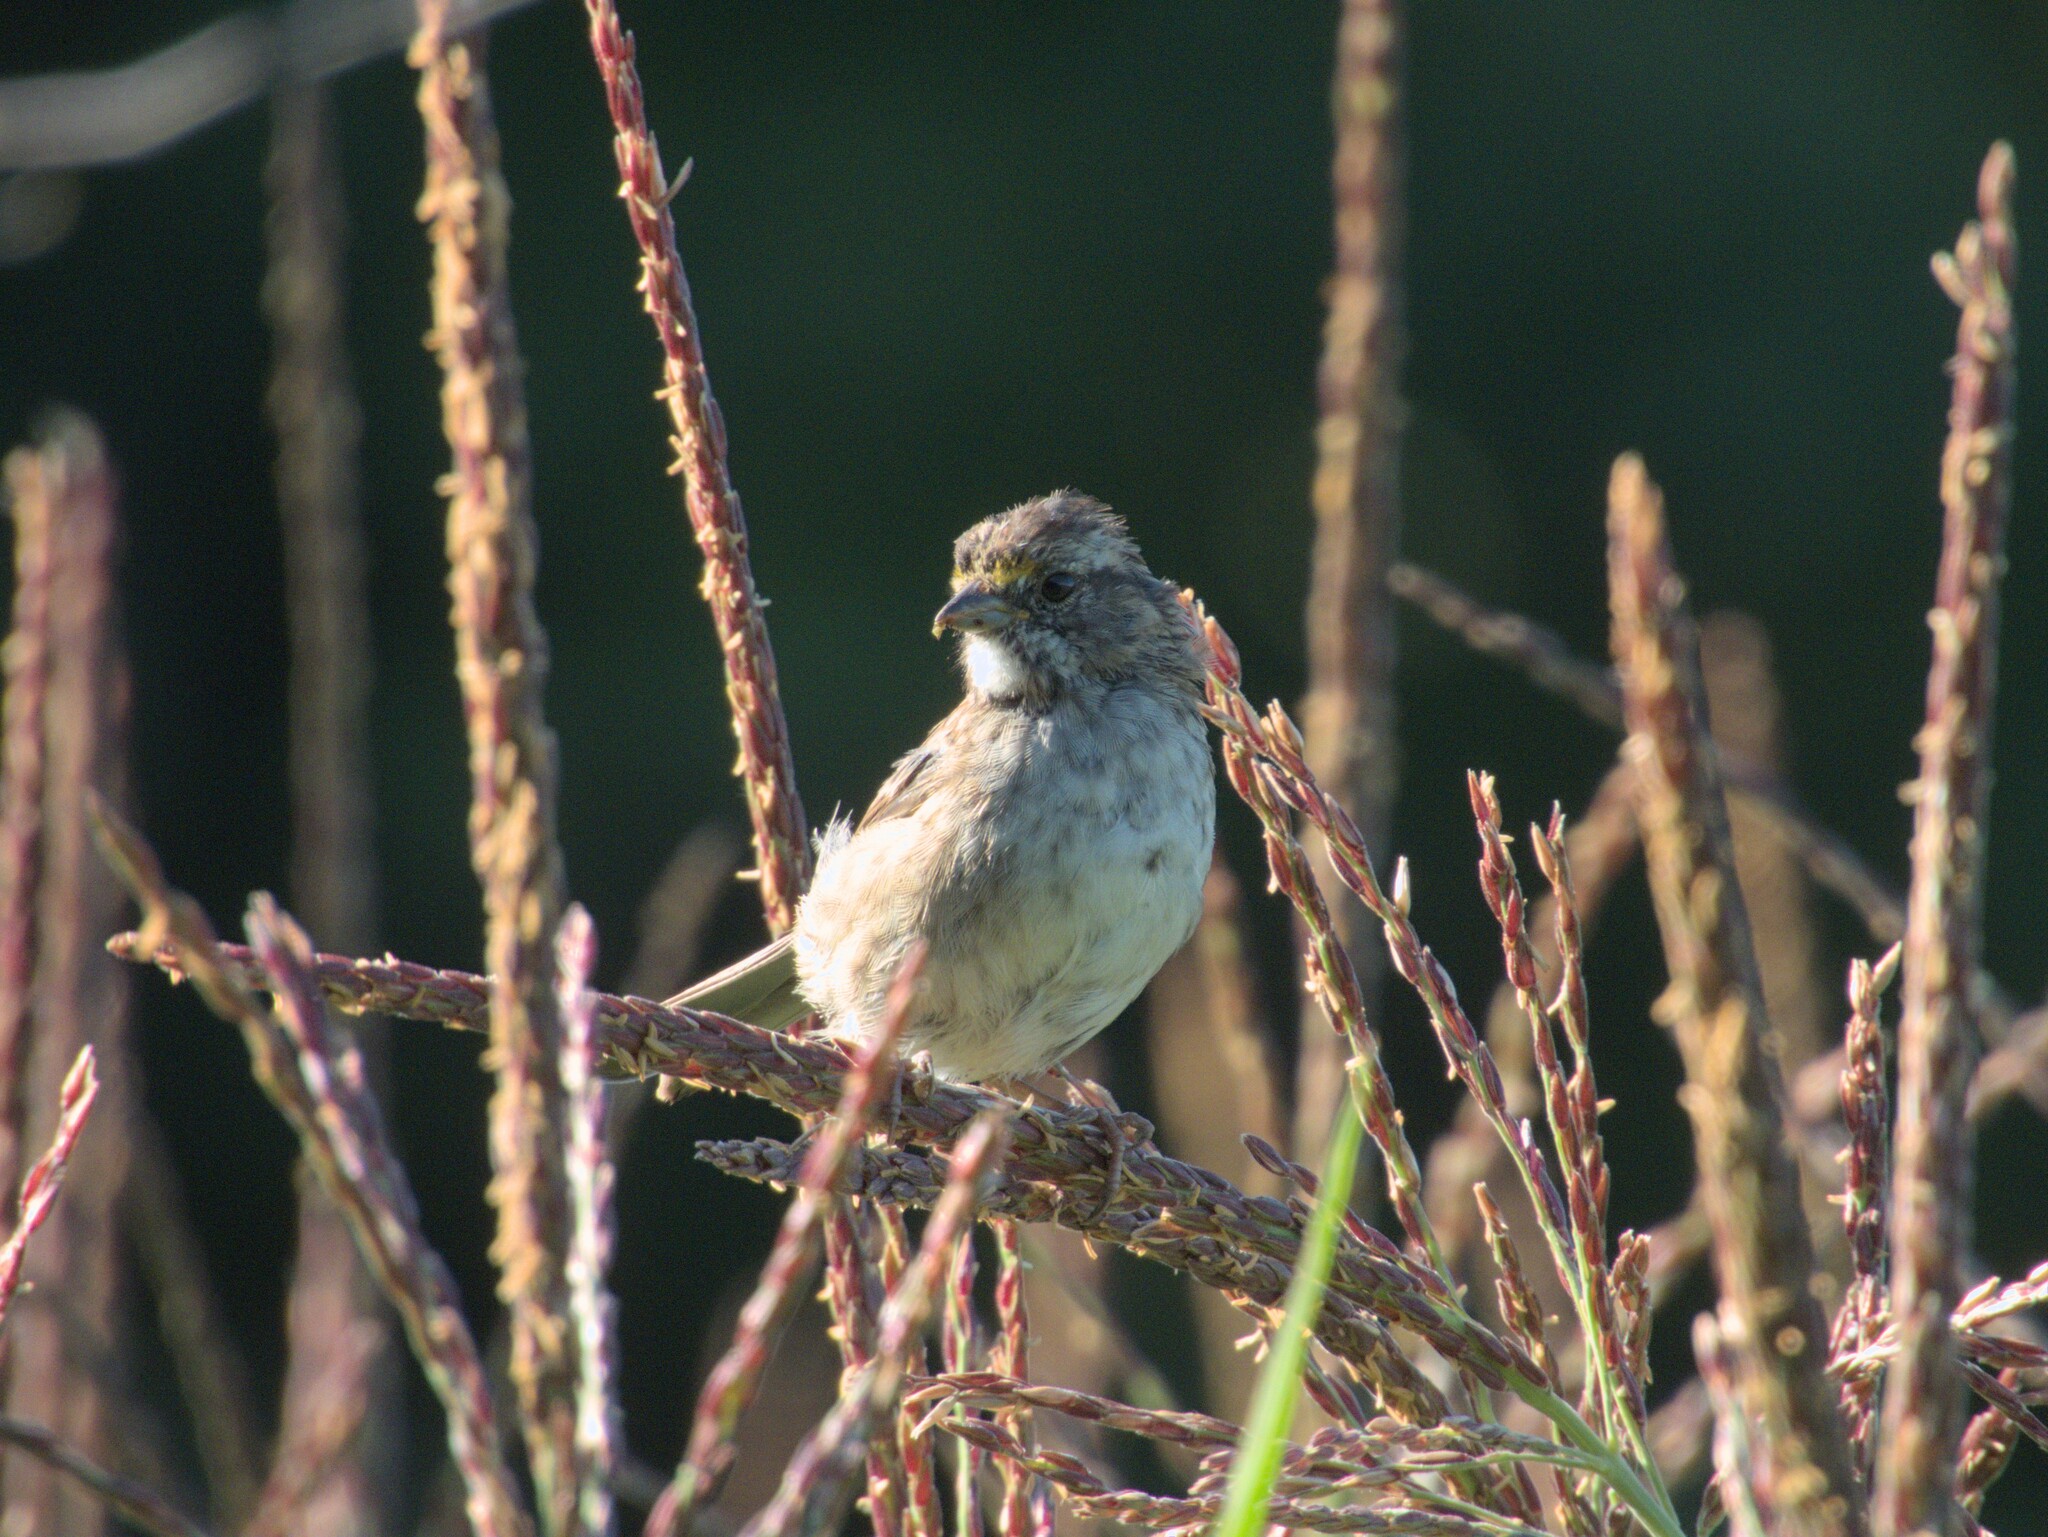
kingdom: Animalia
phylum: Chordata
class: Aves
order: Passeriformes
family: Passerellidae
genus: Zonotrichia
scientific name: Zonotrichia albicollis
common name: White-throated sparrow
